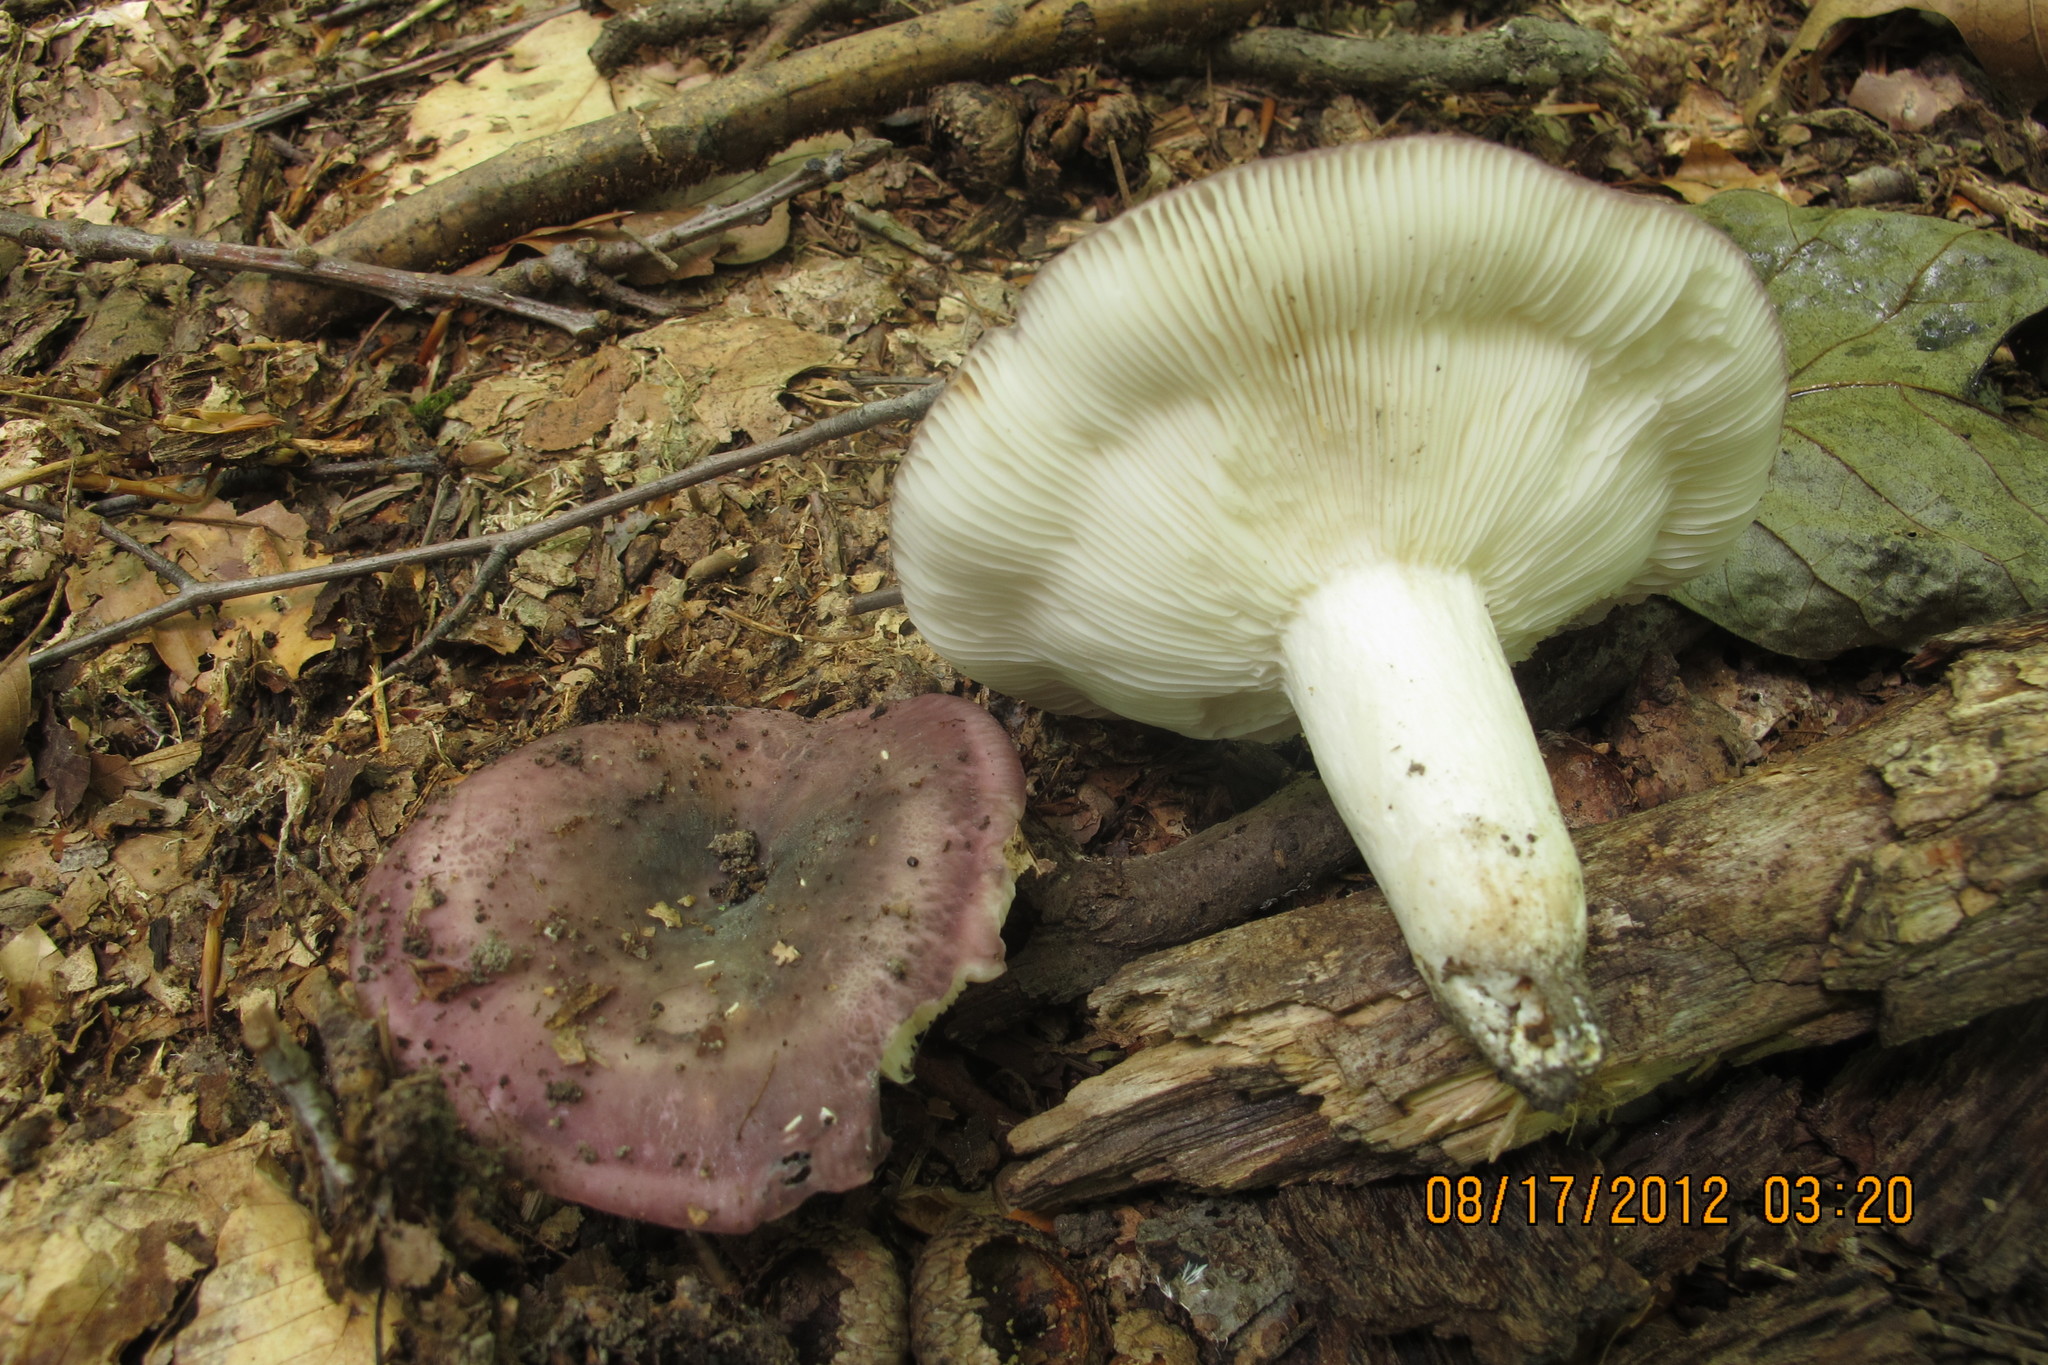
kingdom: Fungi
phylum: Basidiomycota
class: Agaricomycetes
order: Russulales
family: Russulaceae
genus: Russula
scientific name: Russula cyanoxantha
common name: Charcoal burner
